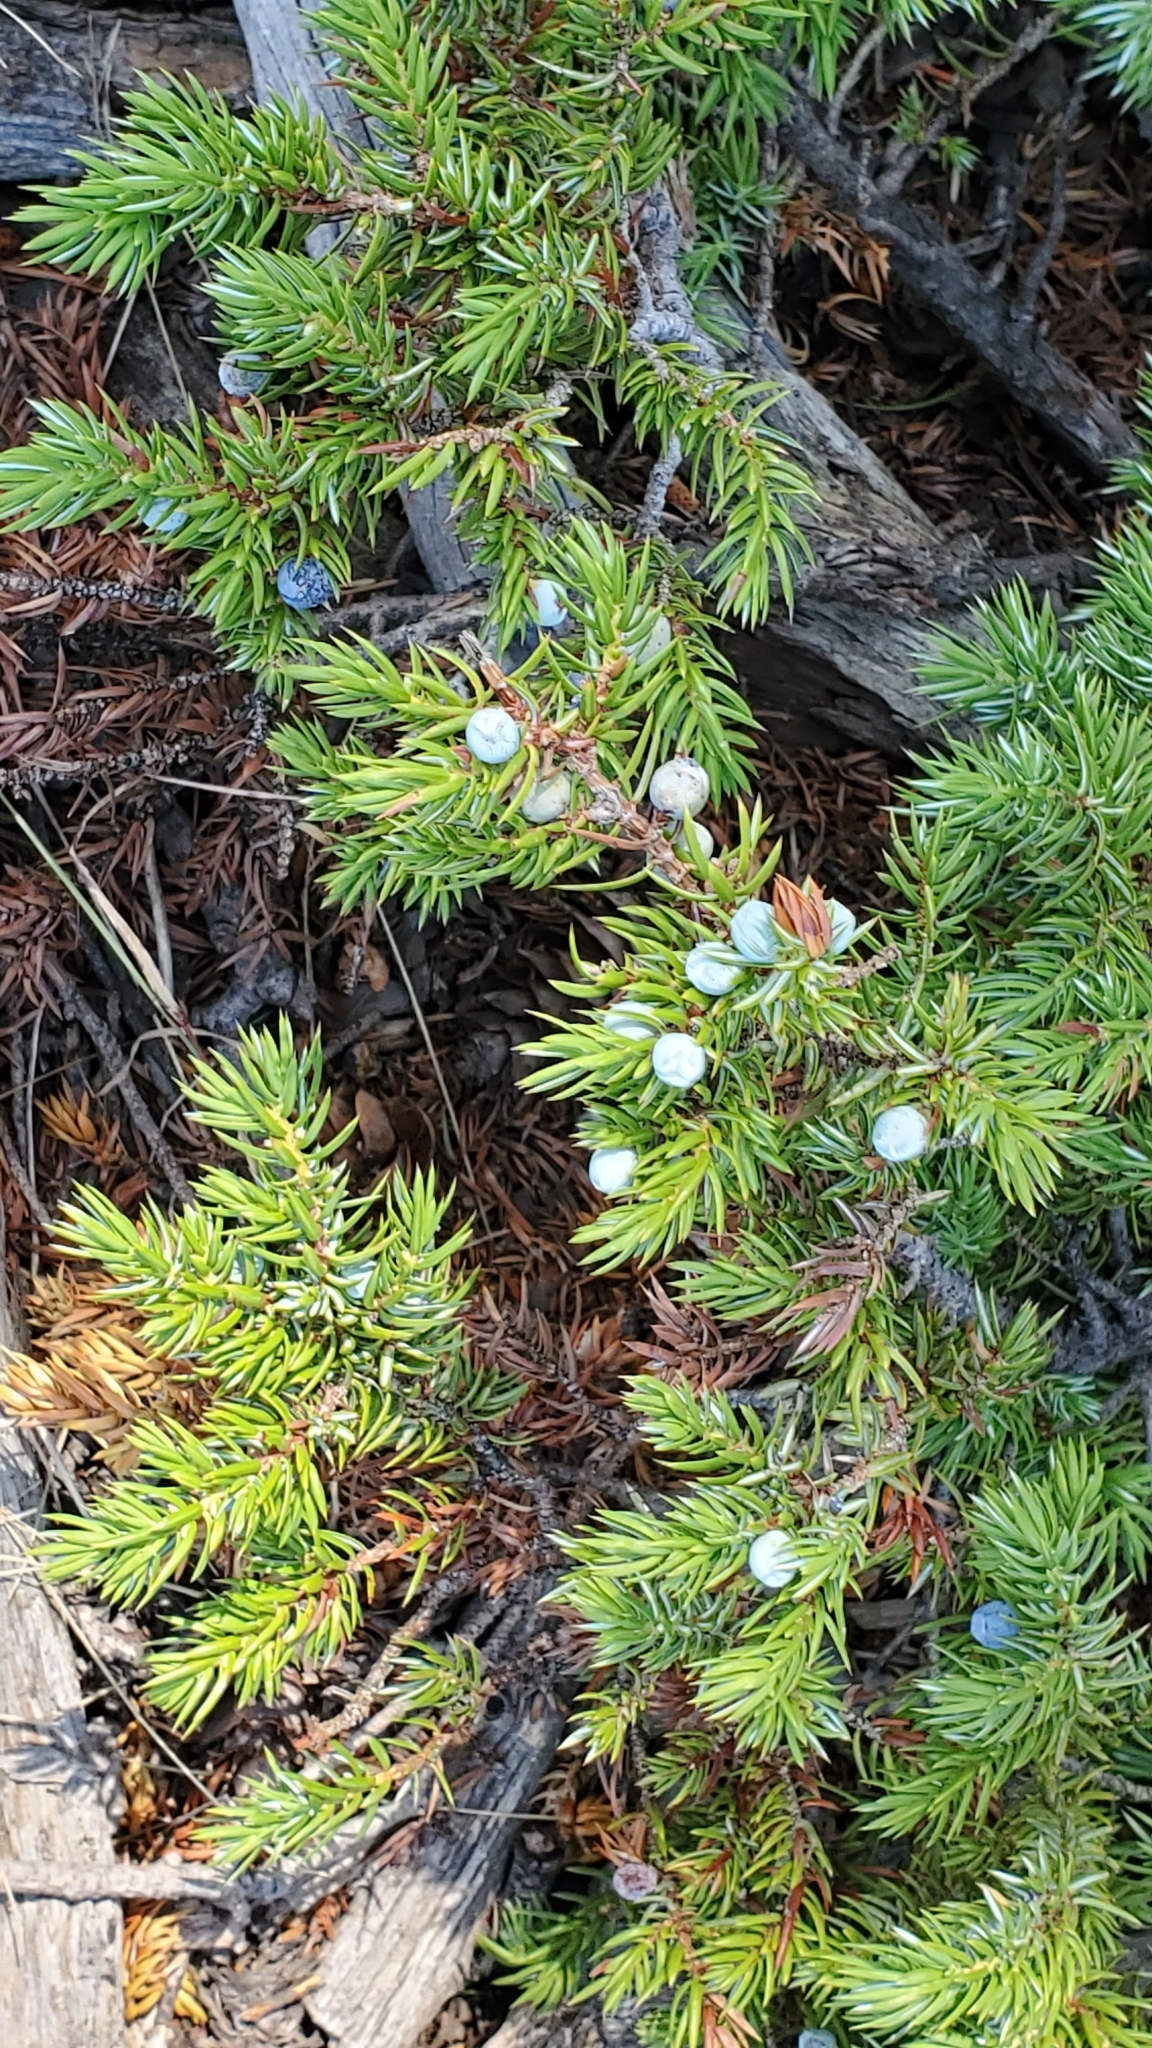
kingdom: Plantae
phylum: Tracheophyta
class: Pinopsida
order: Pinales
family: Cupressaceae
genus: Juniperus
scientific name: Juniperus communis
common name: Common juniper
